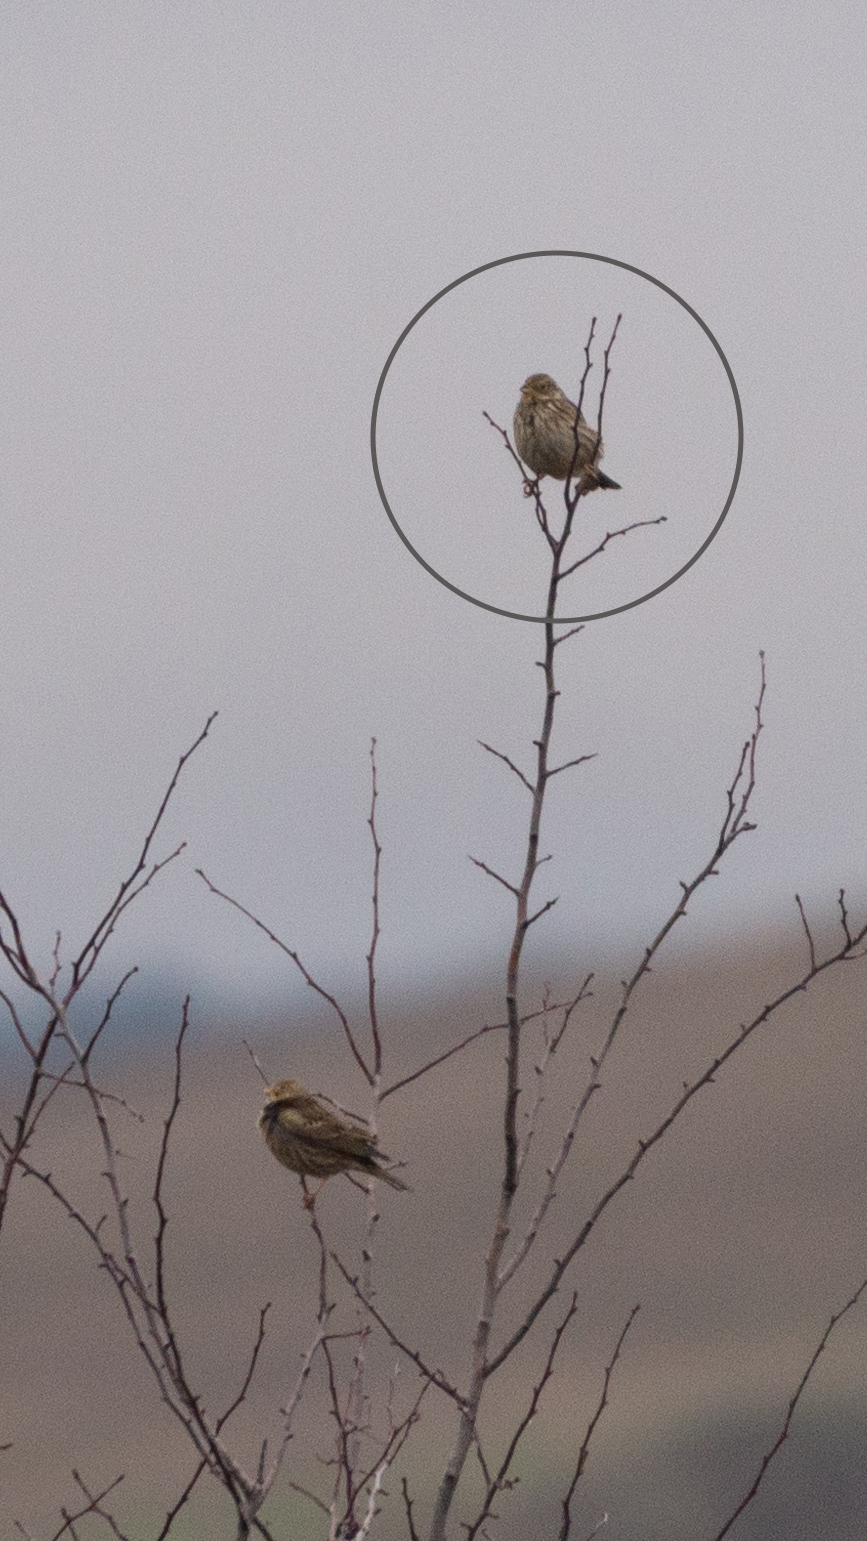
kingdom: Animalia
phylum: Chordata
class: Aves
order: Passeriformes
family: Emberizidae
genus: Emberiza
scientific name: Emberiza calandra
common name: Corn bunting
